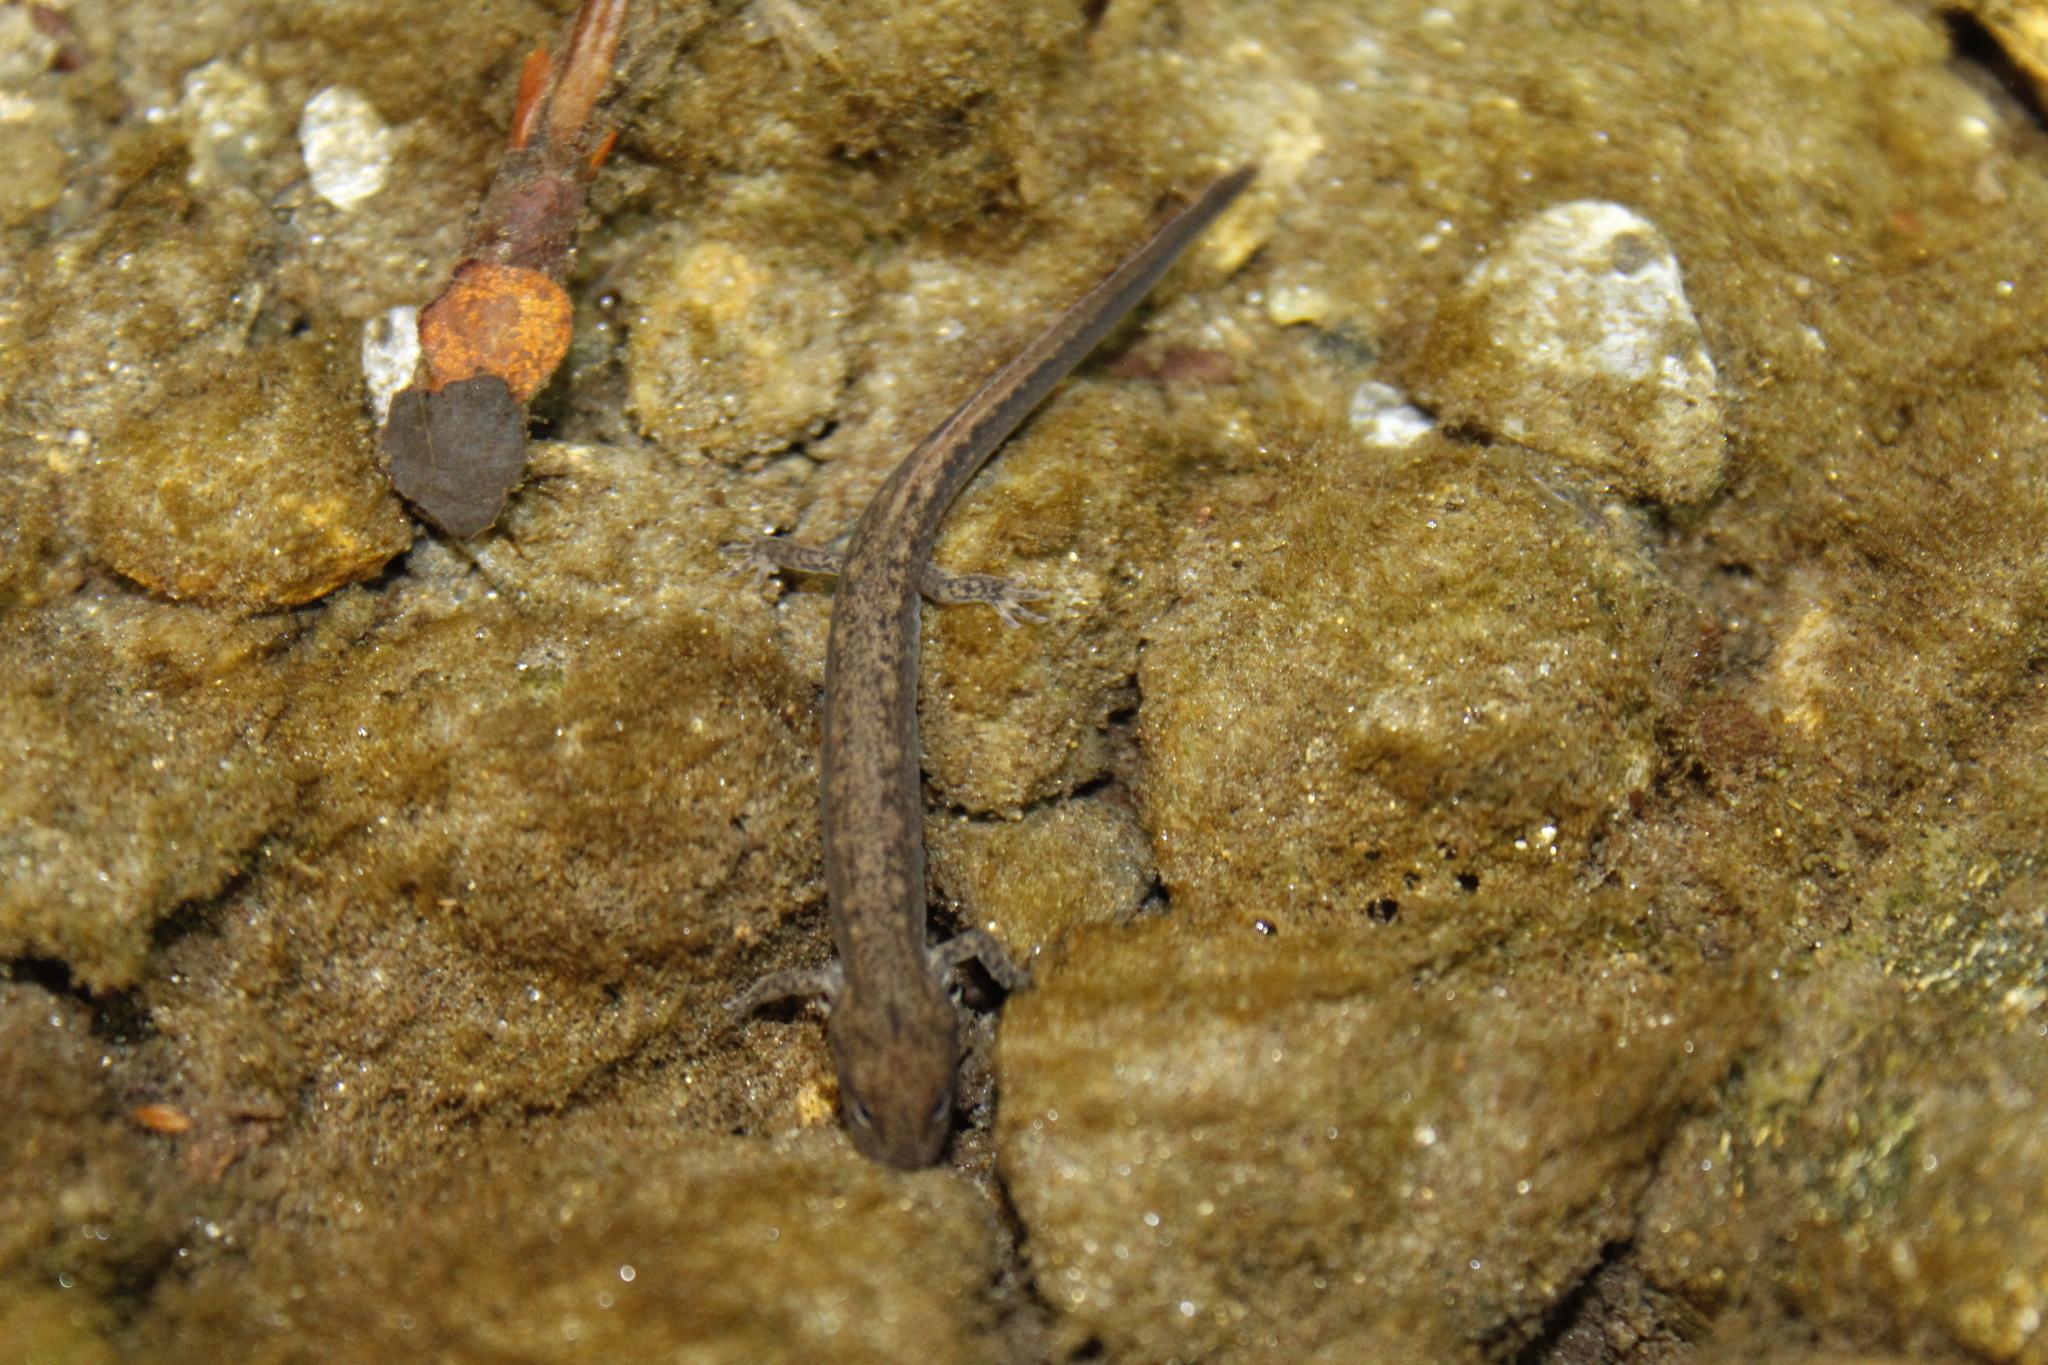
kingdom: Animalia
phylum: Chordata
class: Amphibia
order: Caudata
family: Plethodontidae
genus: Eurycea
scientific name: Eurycea bislineata
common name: Northern two-lined salamander
